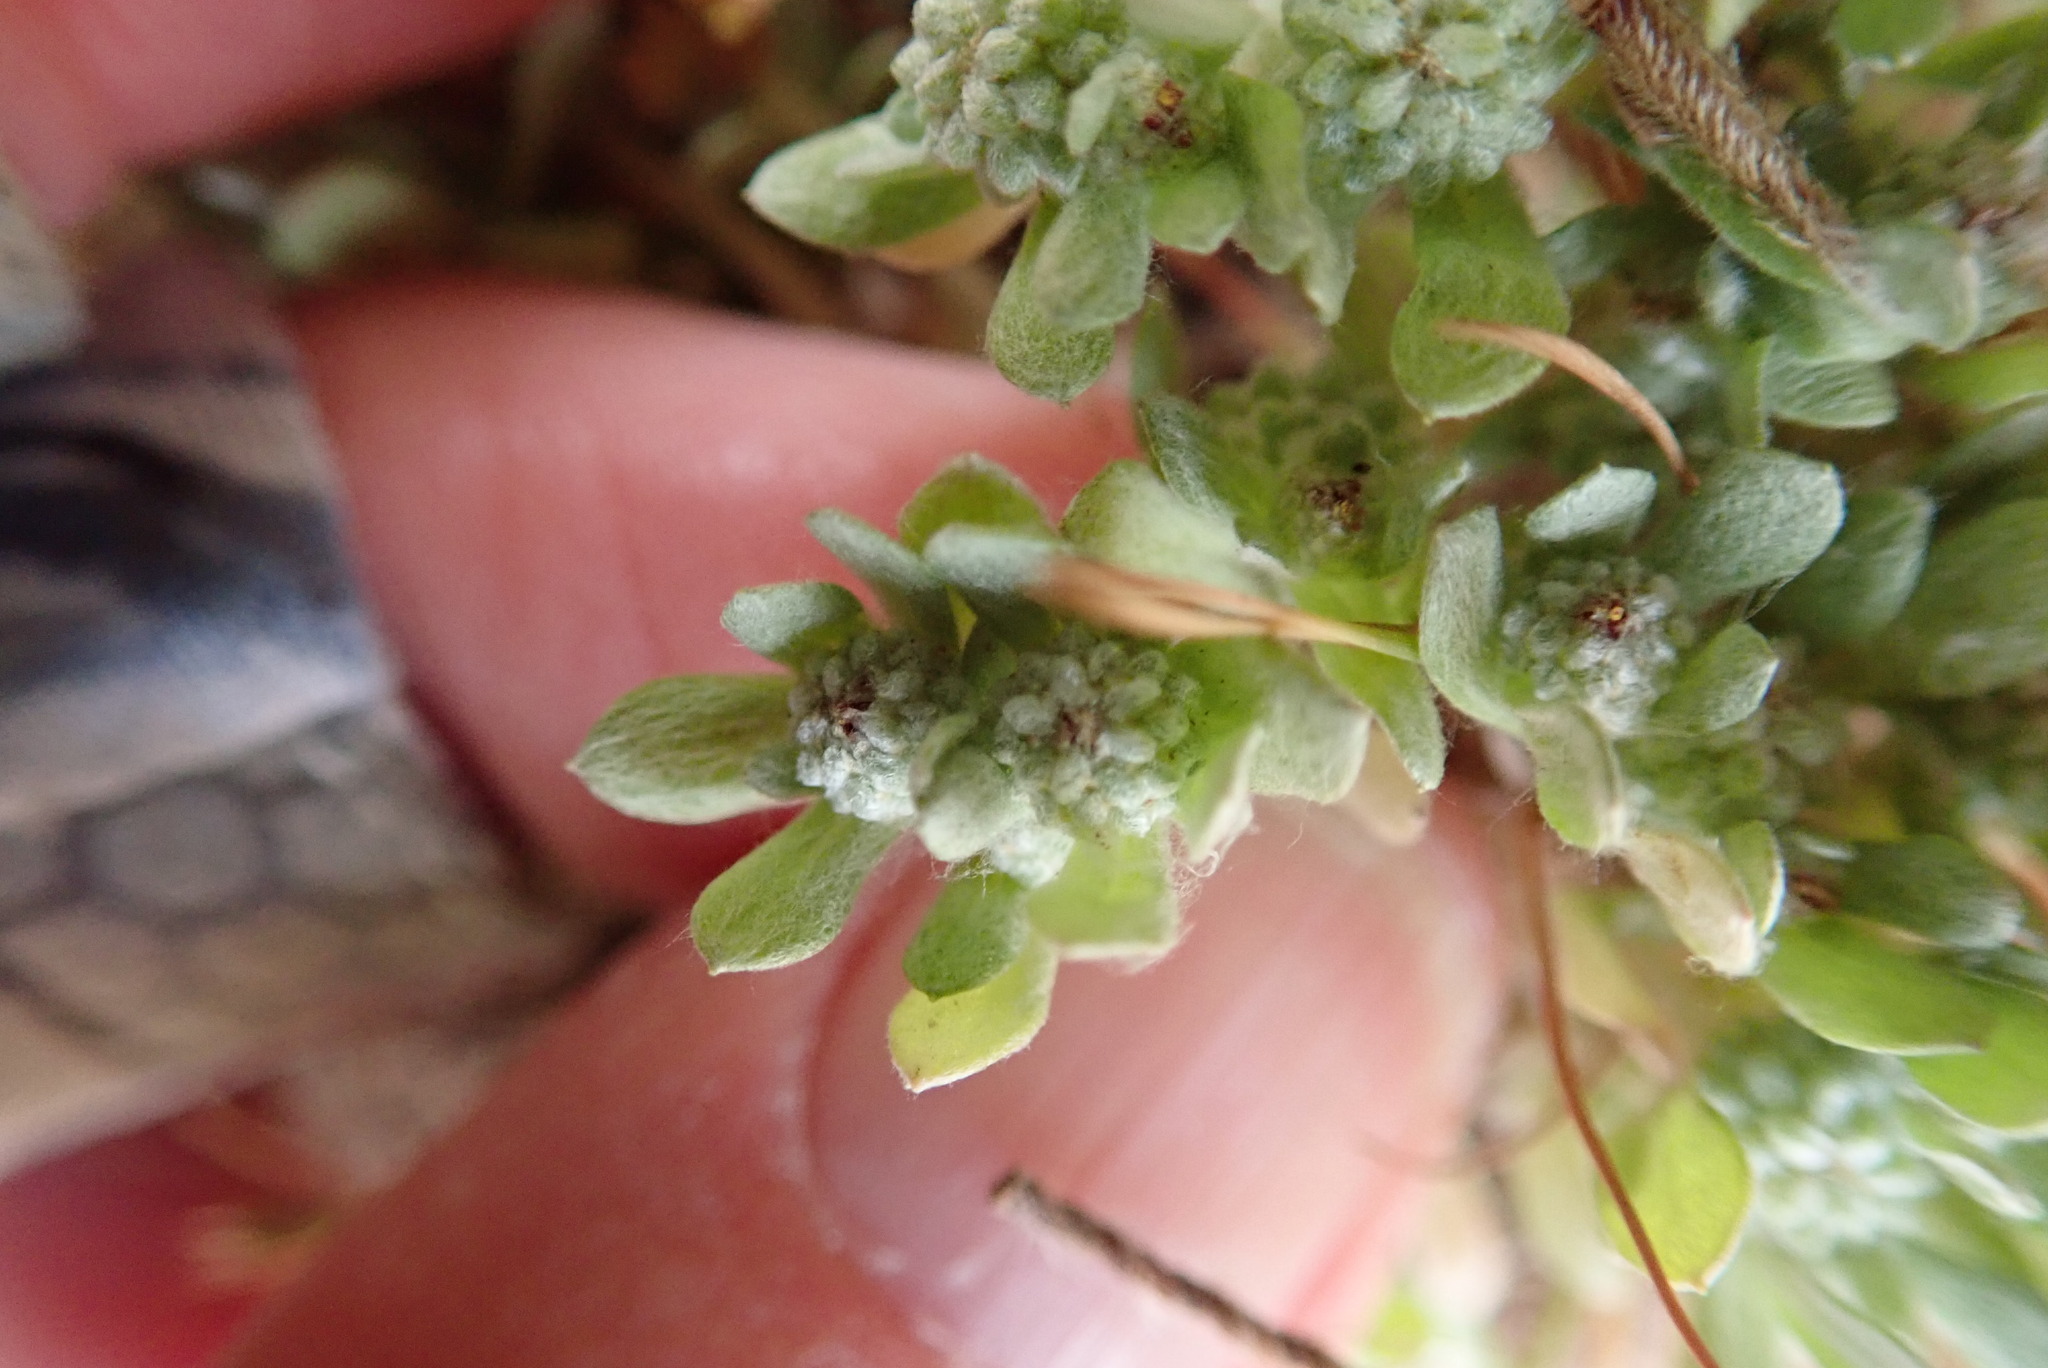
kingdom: Plantae
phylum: Tracheophyta
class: Magnoliopsida
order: Asterales
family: Asteraceae
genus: Psilocarphus
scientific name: Psilocarphus tenellus
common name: Slender woolly-marbles
